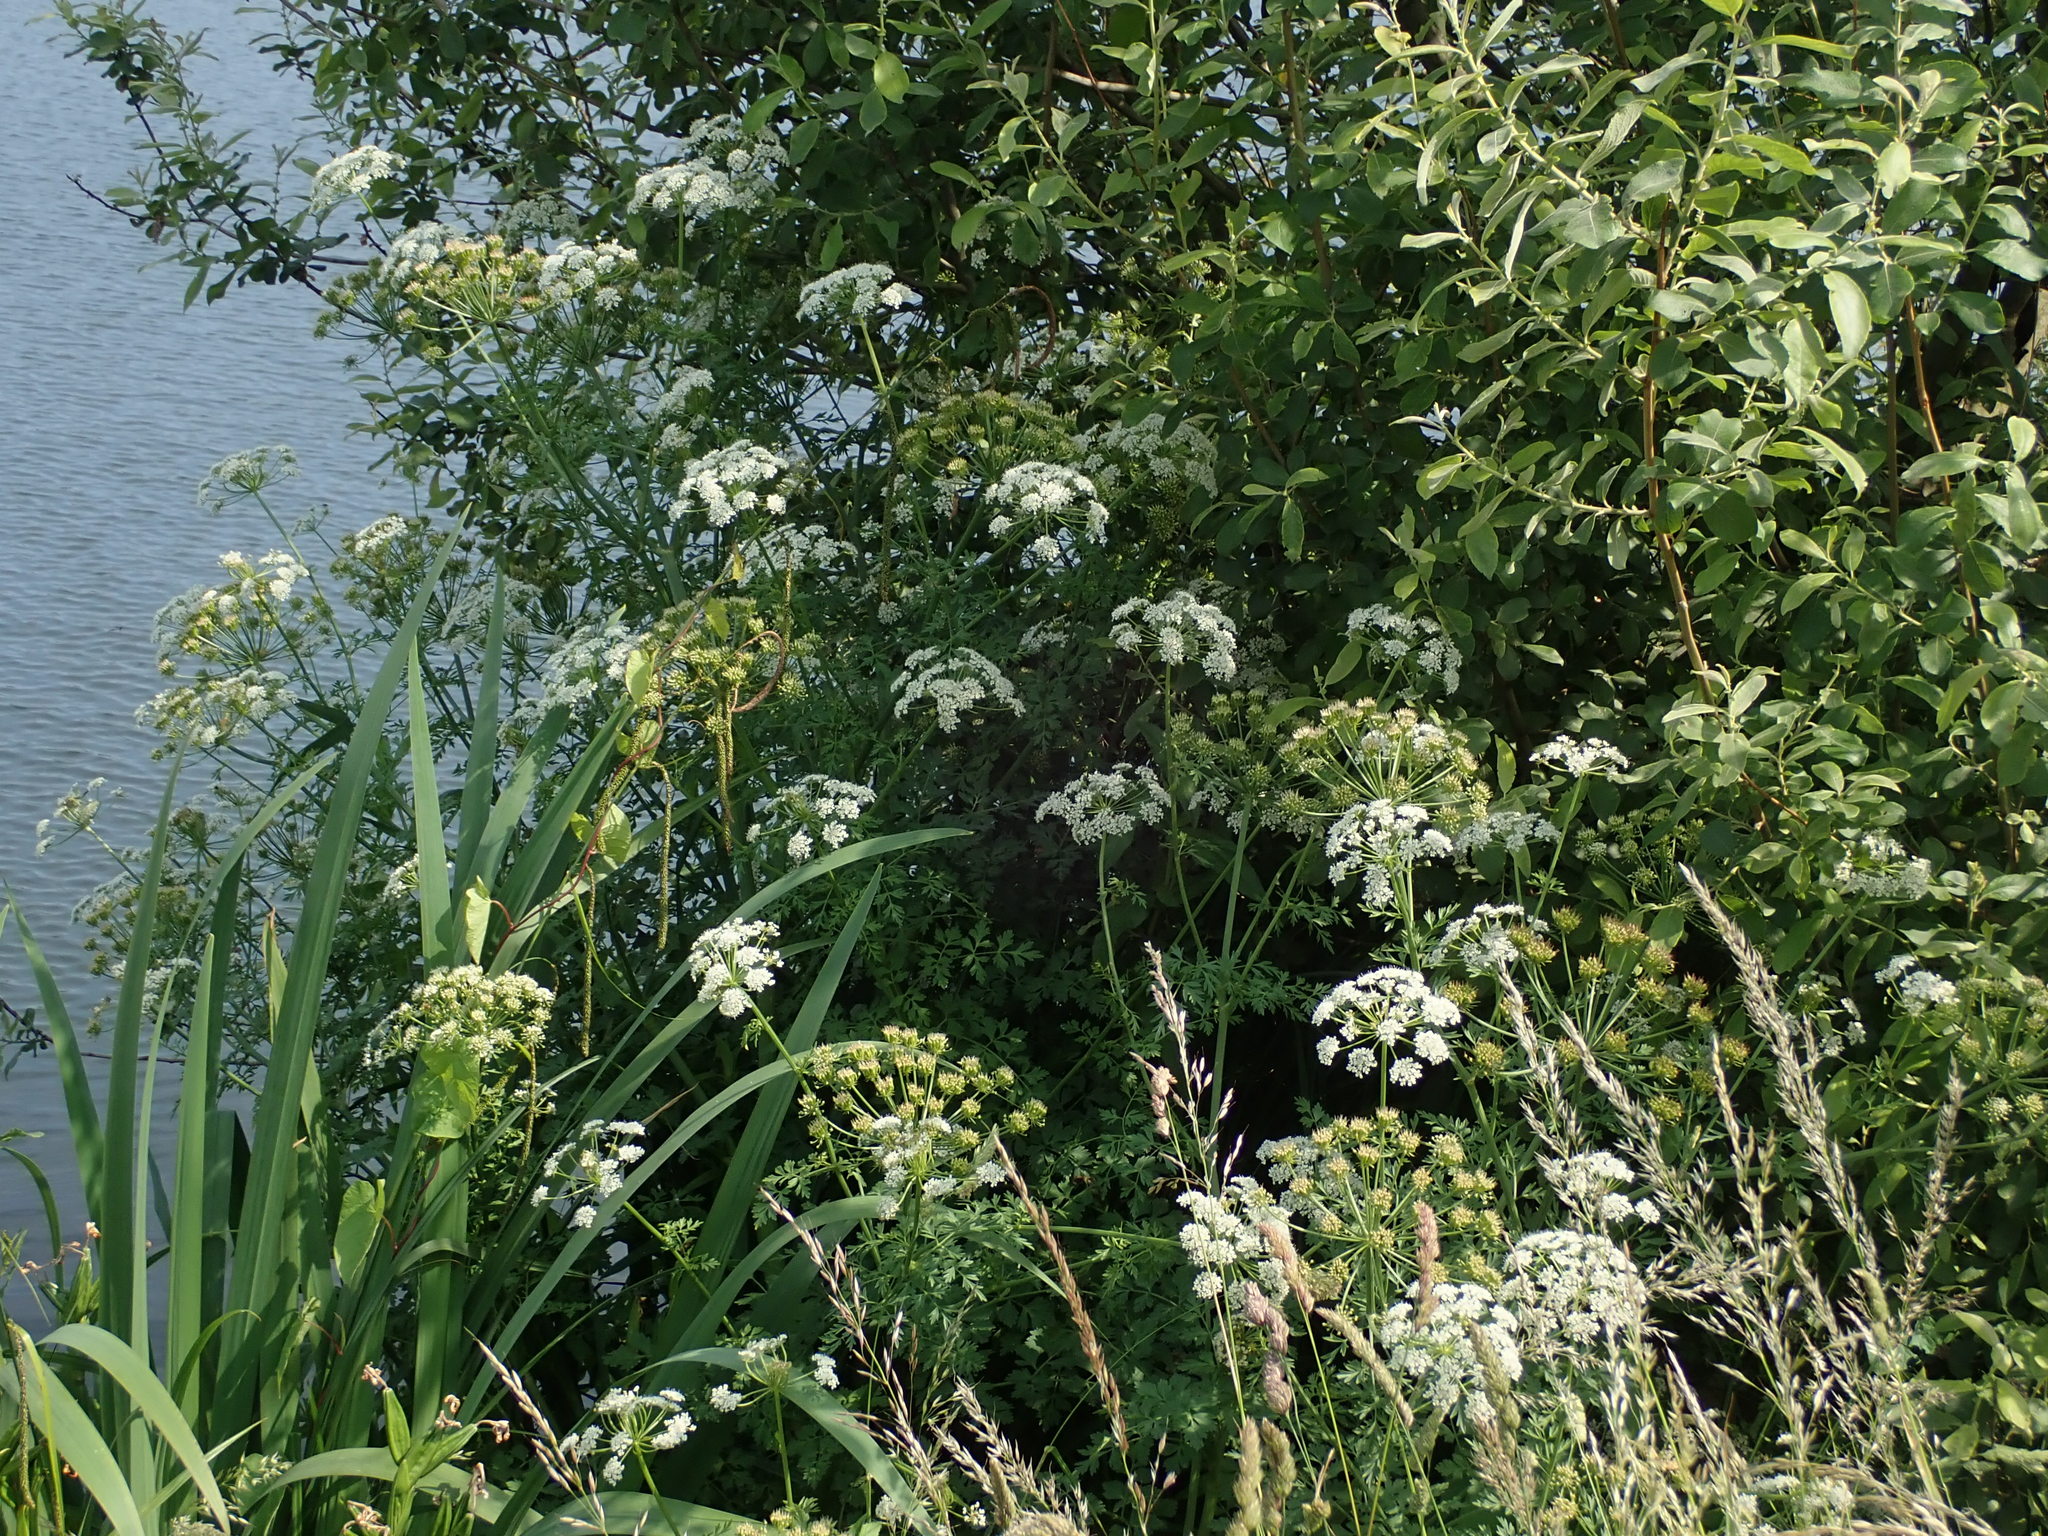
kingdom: Plantae
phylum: Tracheophyta
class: Magnoliopsida
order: Apiales
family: Apiaceae
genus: Oenanthe
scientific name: Oenanthe crocata
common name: Hemlock water-dropwort
